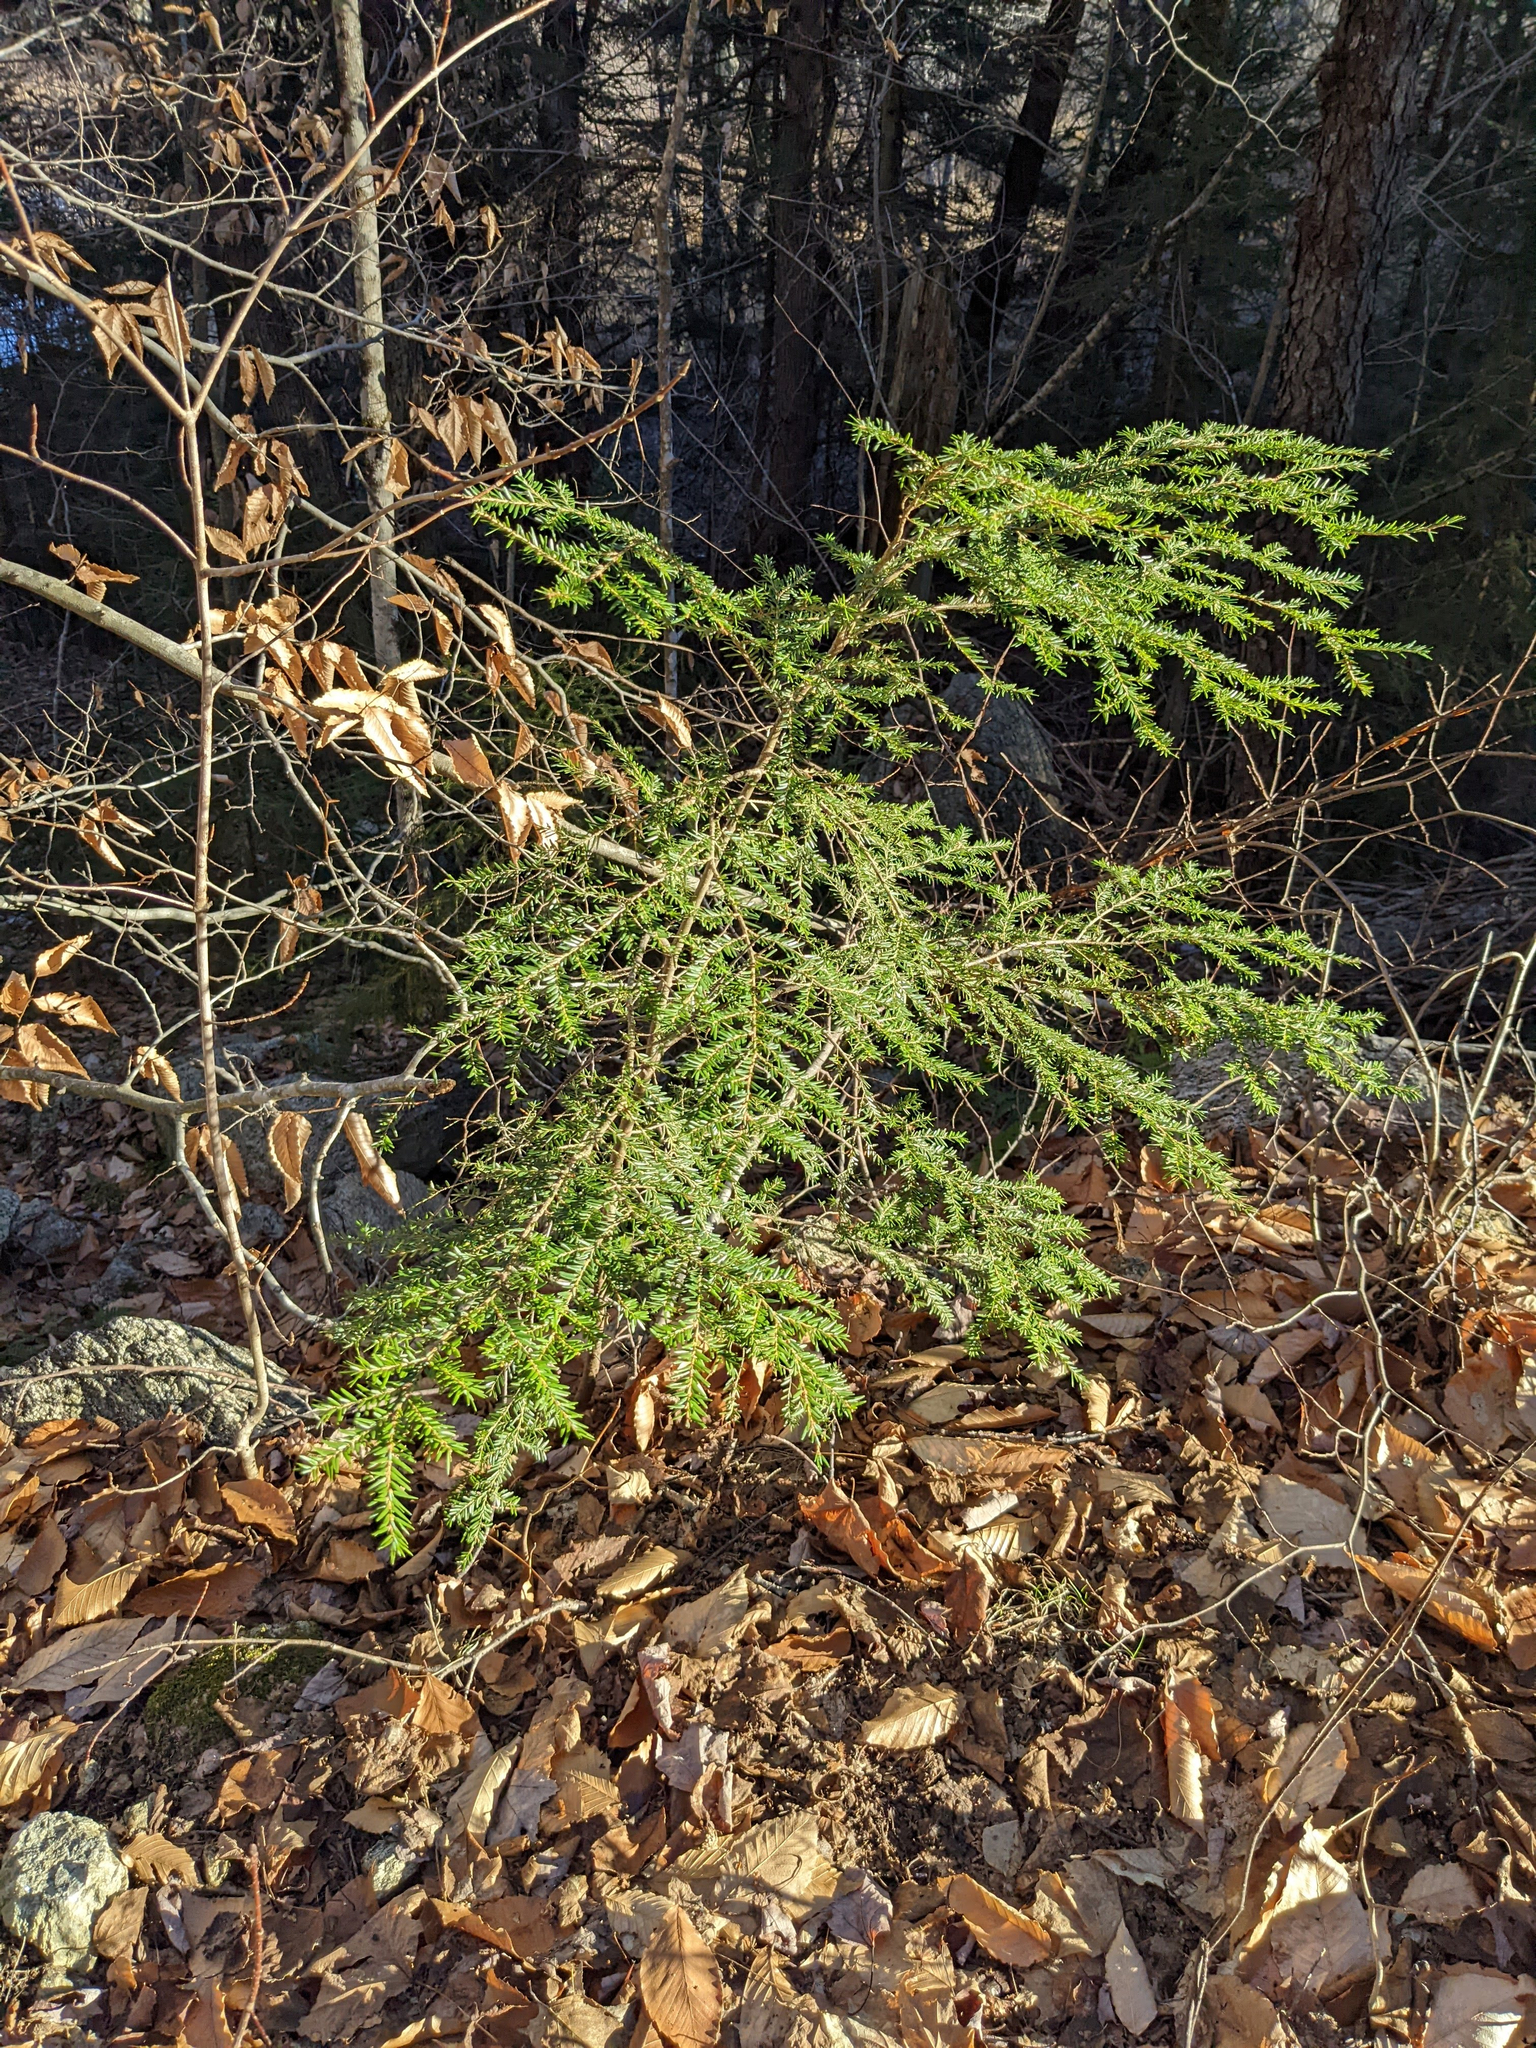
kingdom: Plantae
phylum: Tracheophyta
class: Pinopsida
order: Pinales
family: Pinaceae
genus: Tsuga
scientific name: Tsuga canadensis
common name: Eastern hemlock
